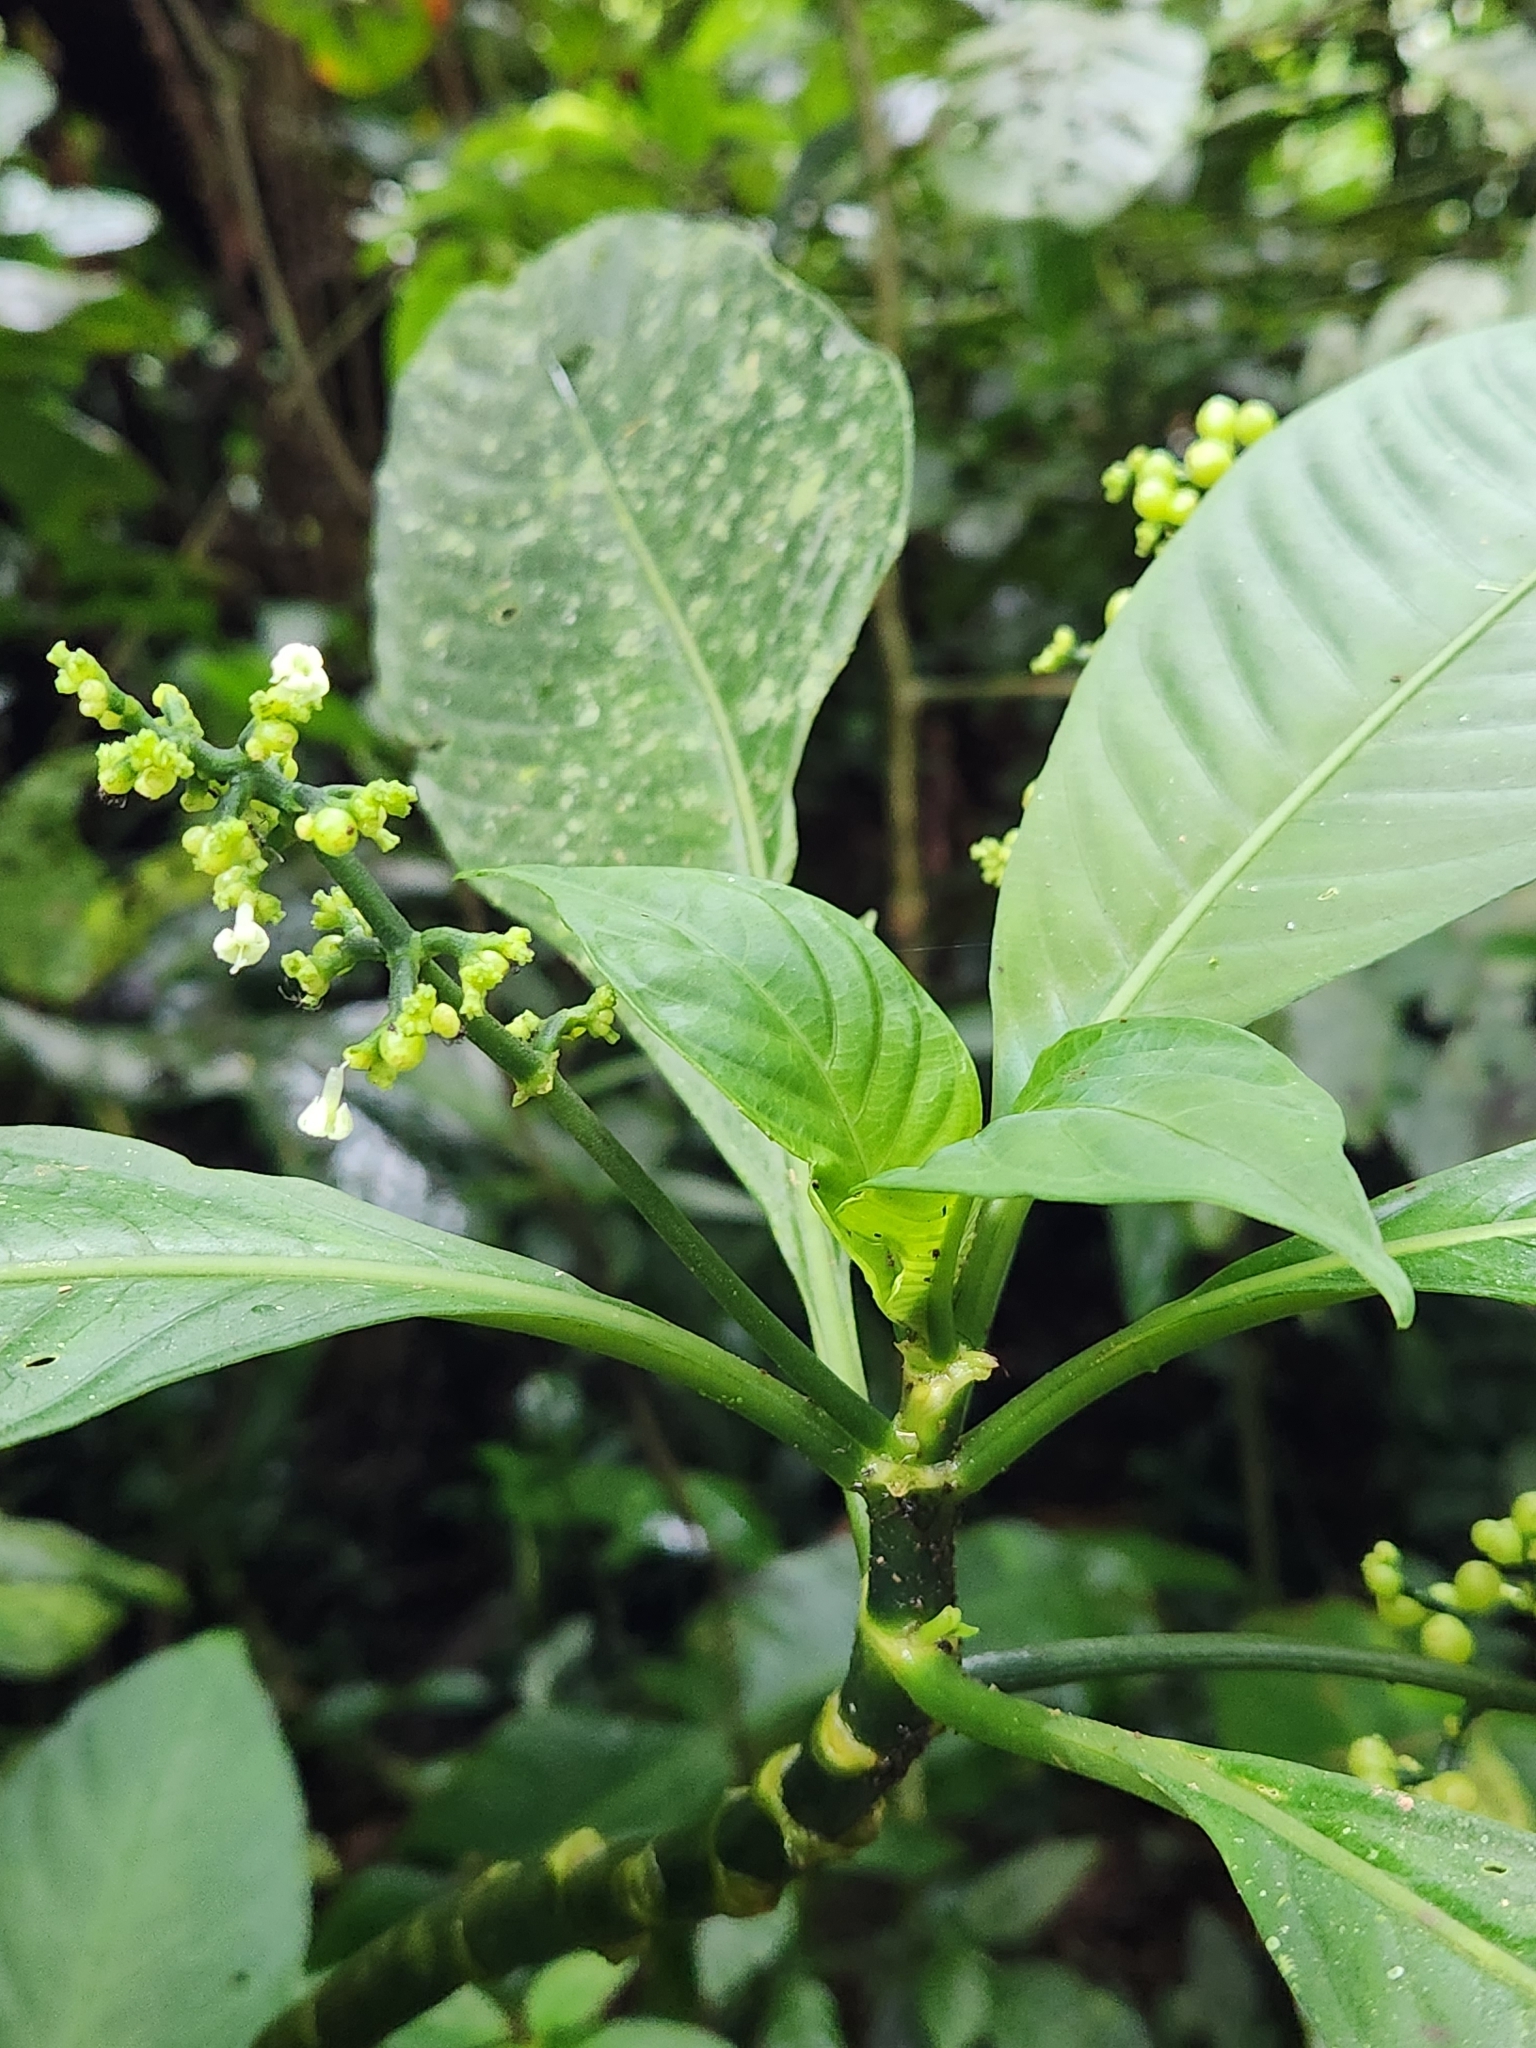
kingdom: Plantae
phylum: Tracheophyta
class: Magnoliopsida
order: Gentianales
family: Rubiaceae
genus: Notopleura
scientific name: Notopleura anomothyrsa
